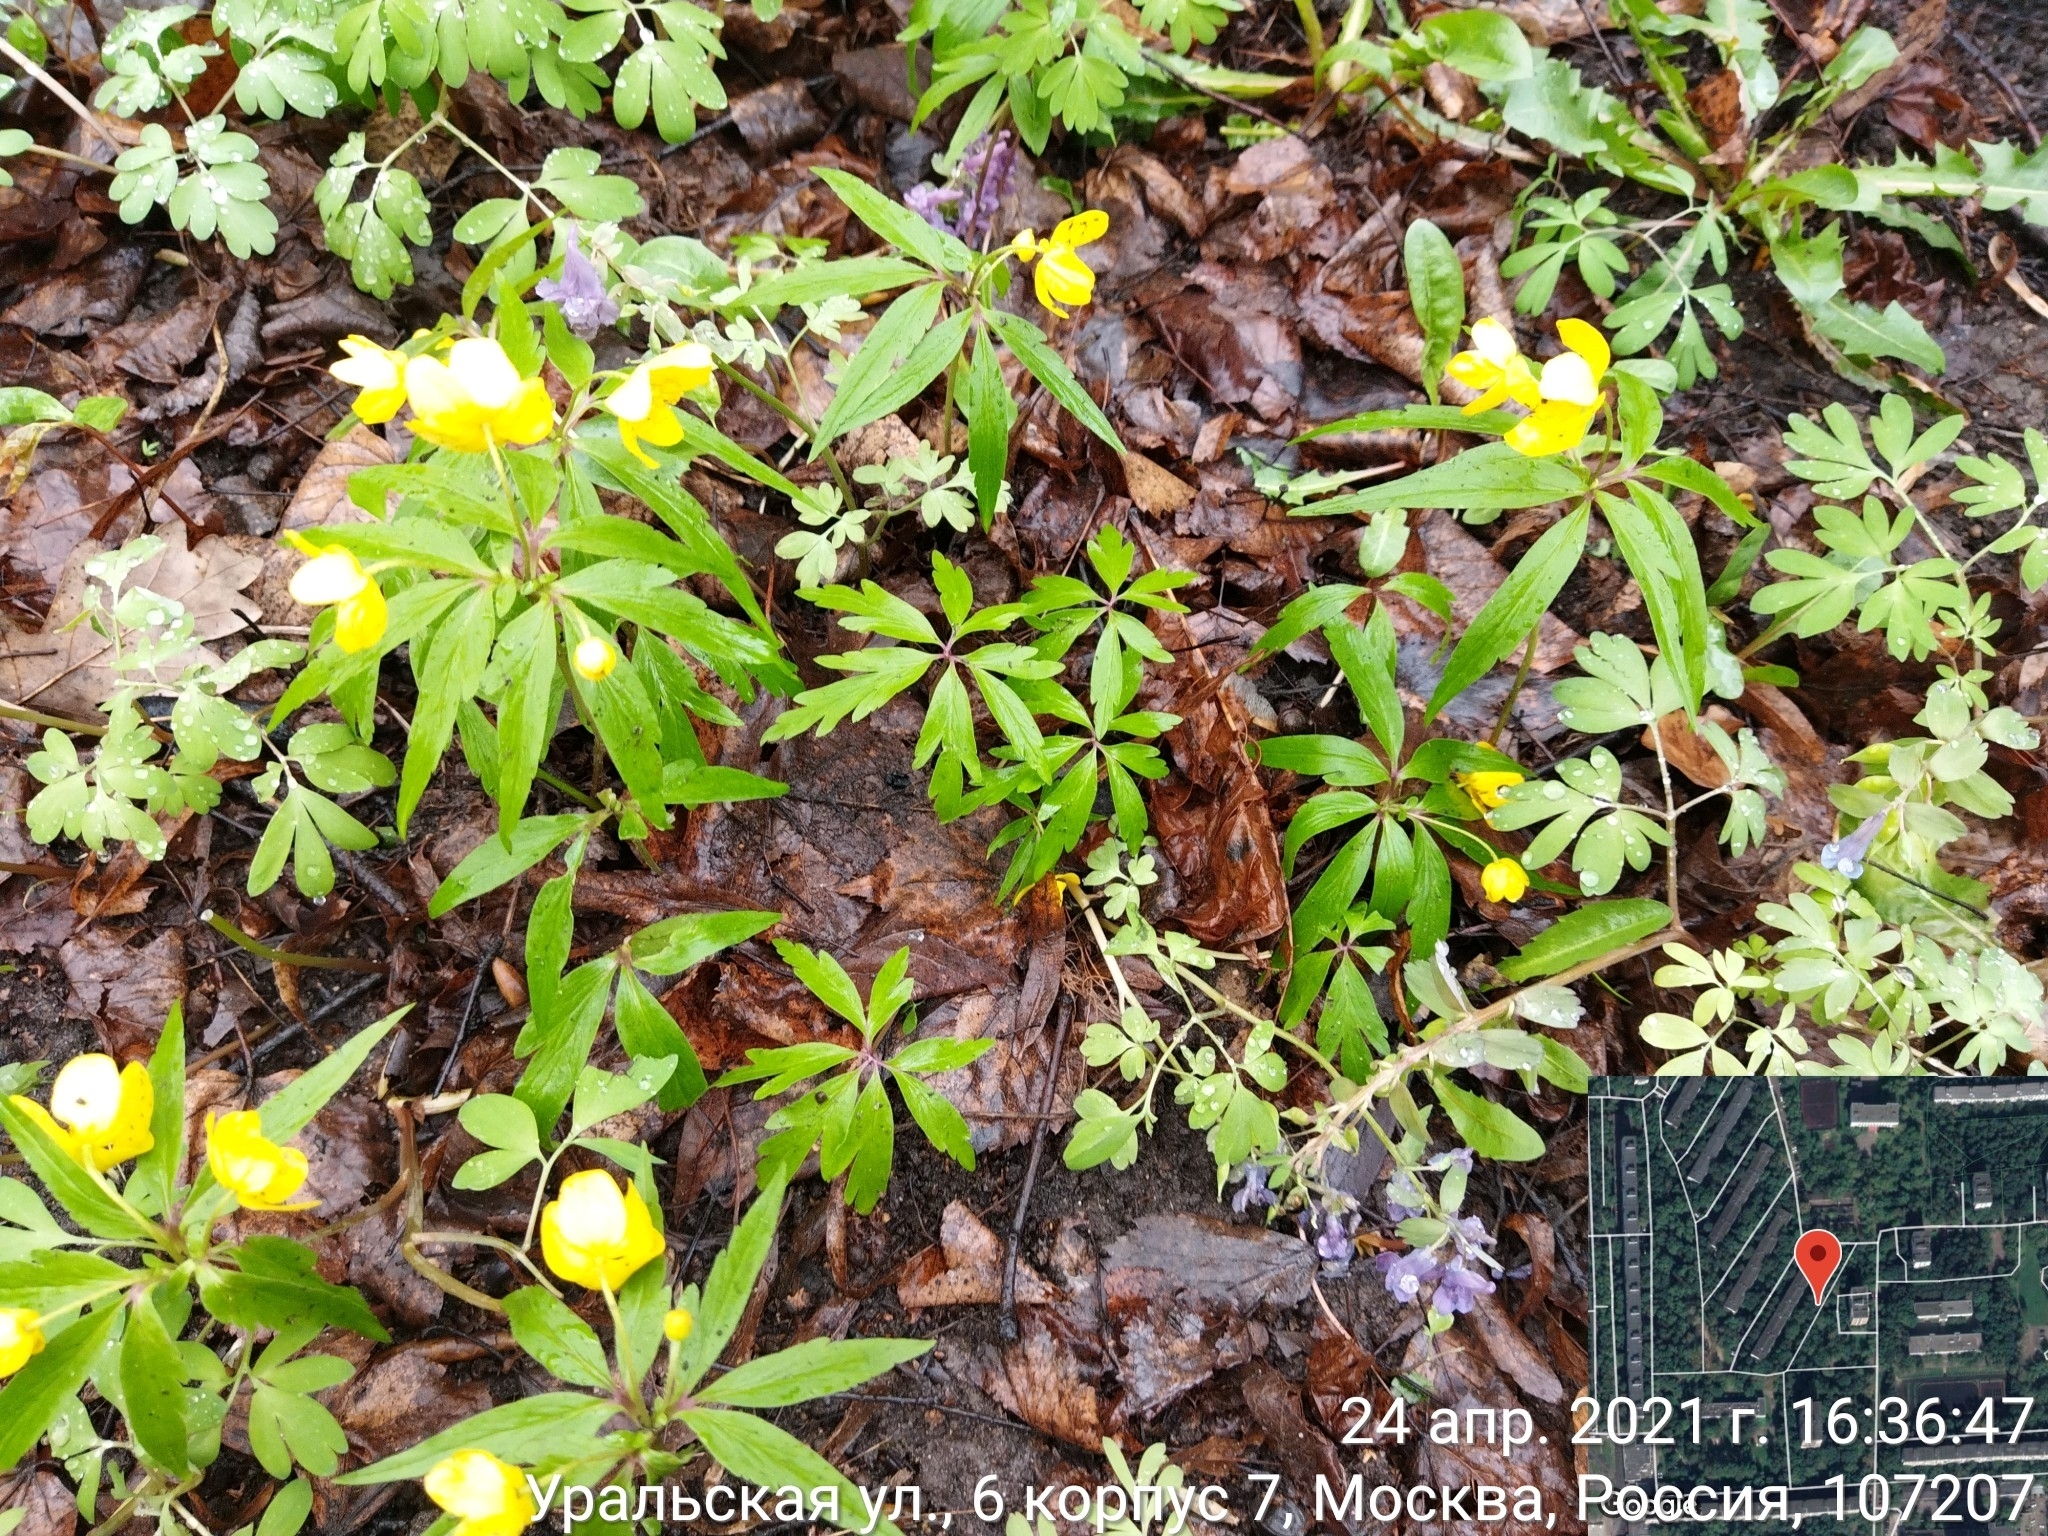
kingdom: Plantae
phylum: Tracheophyta
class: Magnoliopsida
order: Ranunculales
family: Ranunculaceae
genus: Anemone
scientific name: Anemone ranunculoides
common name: Yellow anemone
